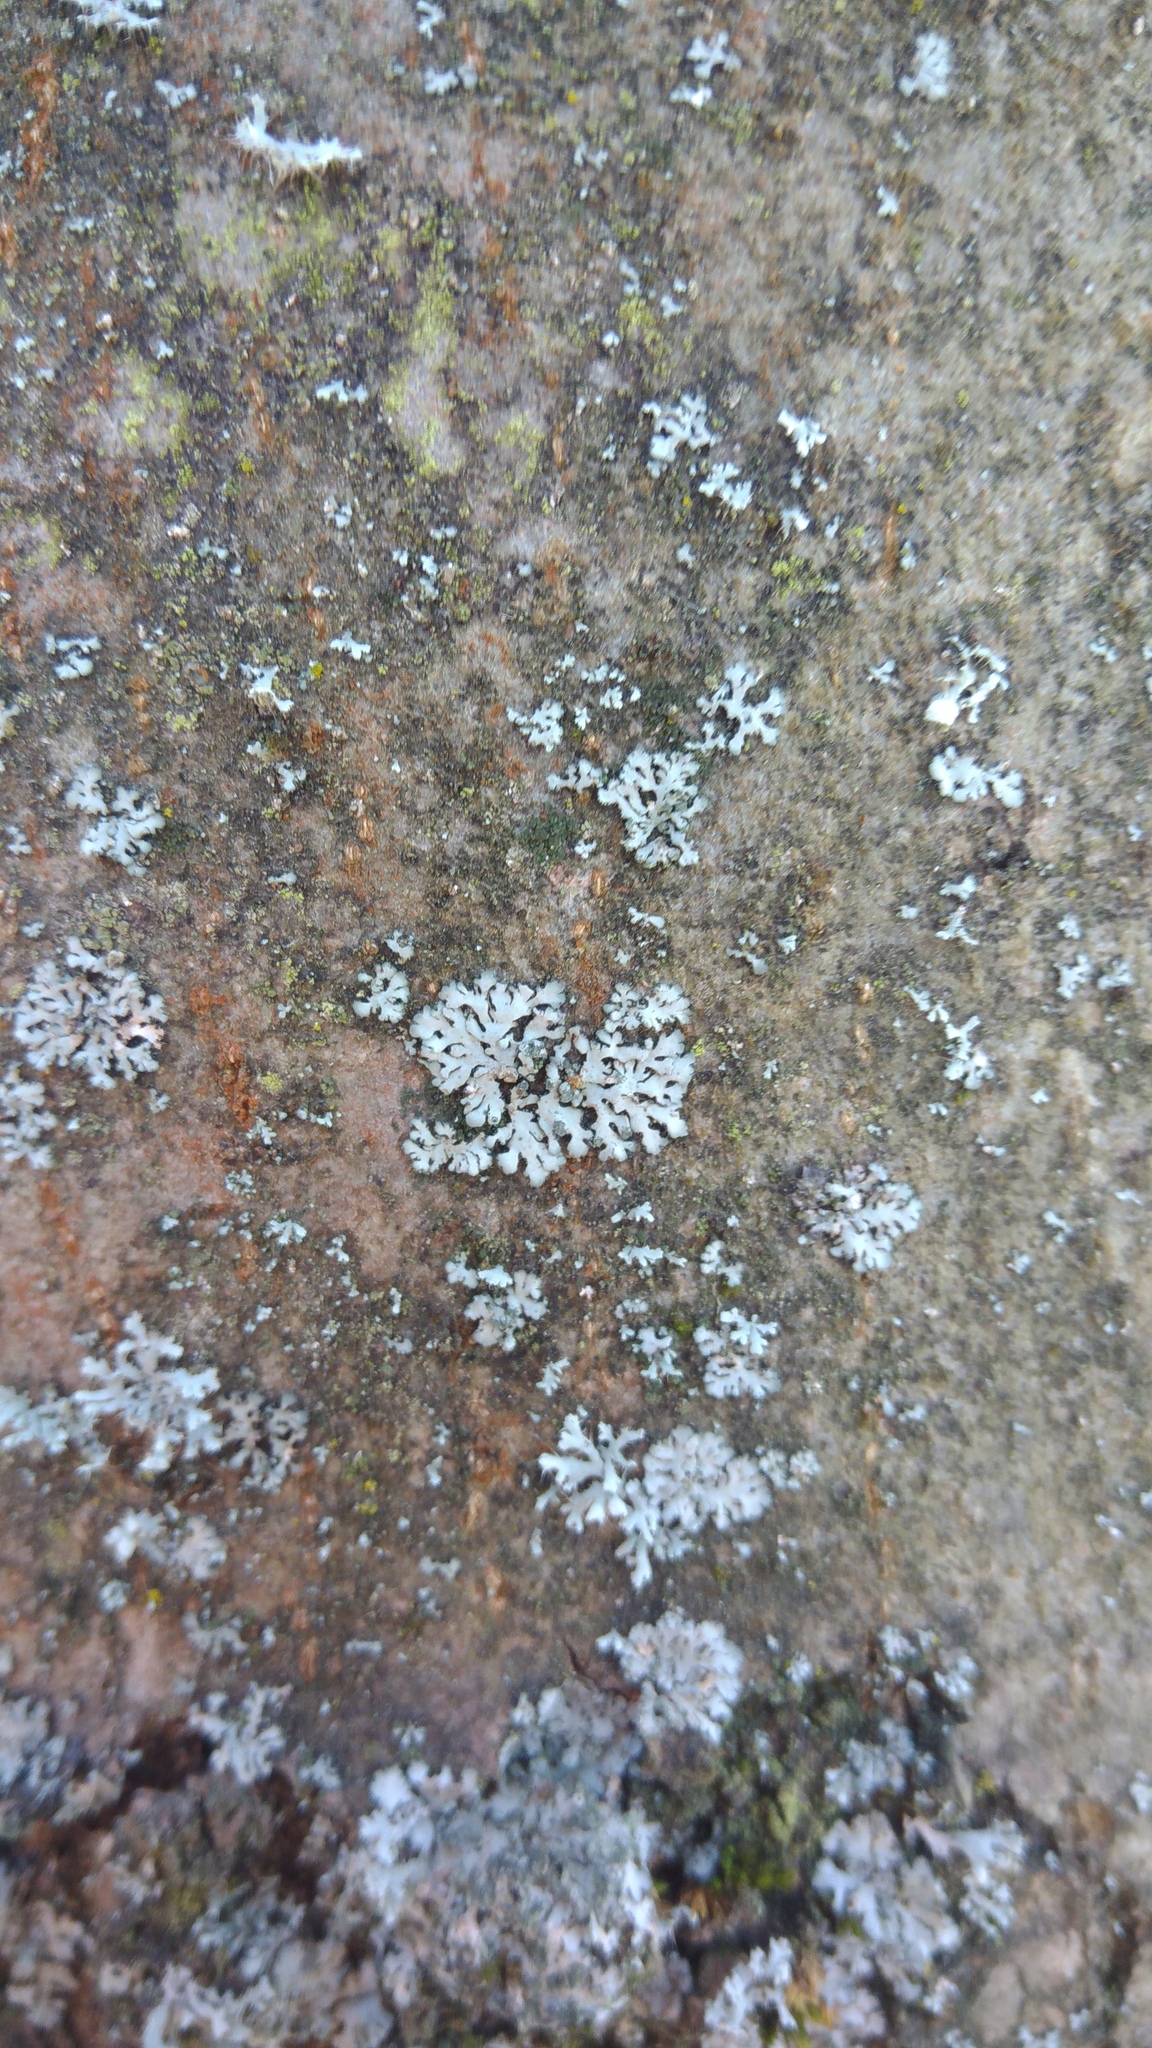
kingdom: Fungi
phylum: Ascomycota
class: Lecanoromycetes
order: Caliciales
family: Physciaceae
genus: Phaeophyscia
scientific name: Phaeophyscia orbicularis
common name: Mealy shadow lichen
